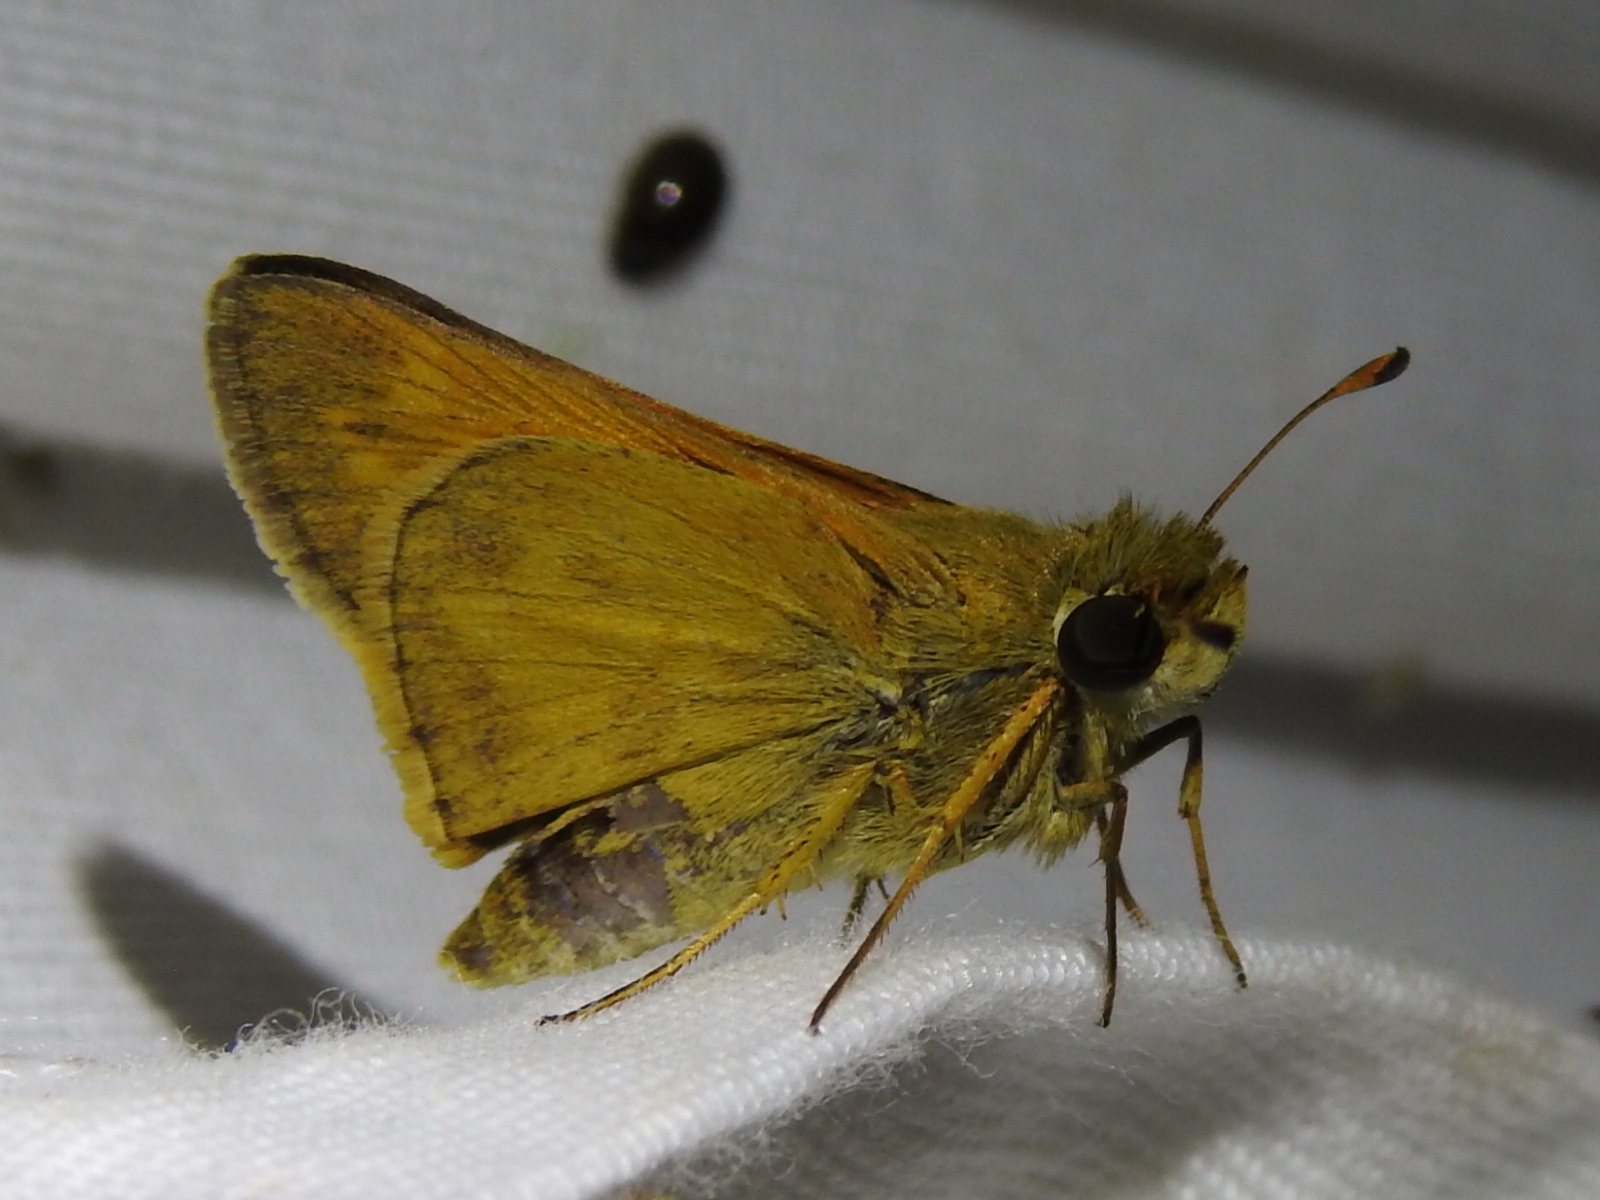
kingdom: Animalia
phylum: Arthropoda
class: Insecta
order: Lepidoptera
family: Hesperiidae
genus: Atalopedes
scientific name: Atalopedes
